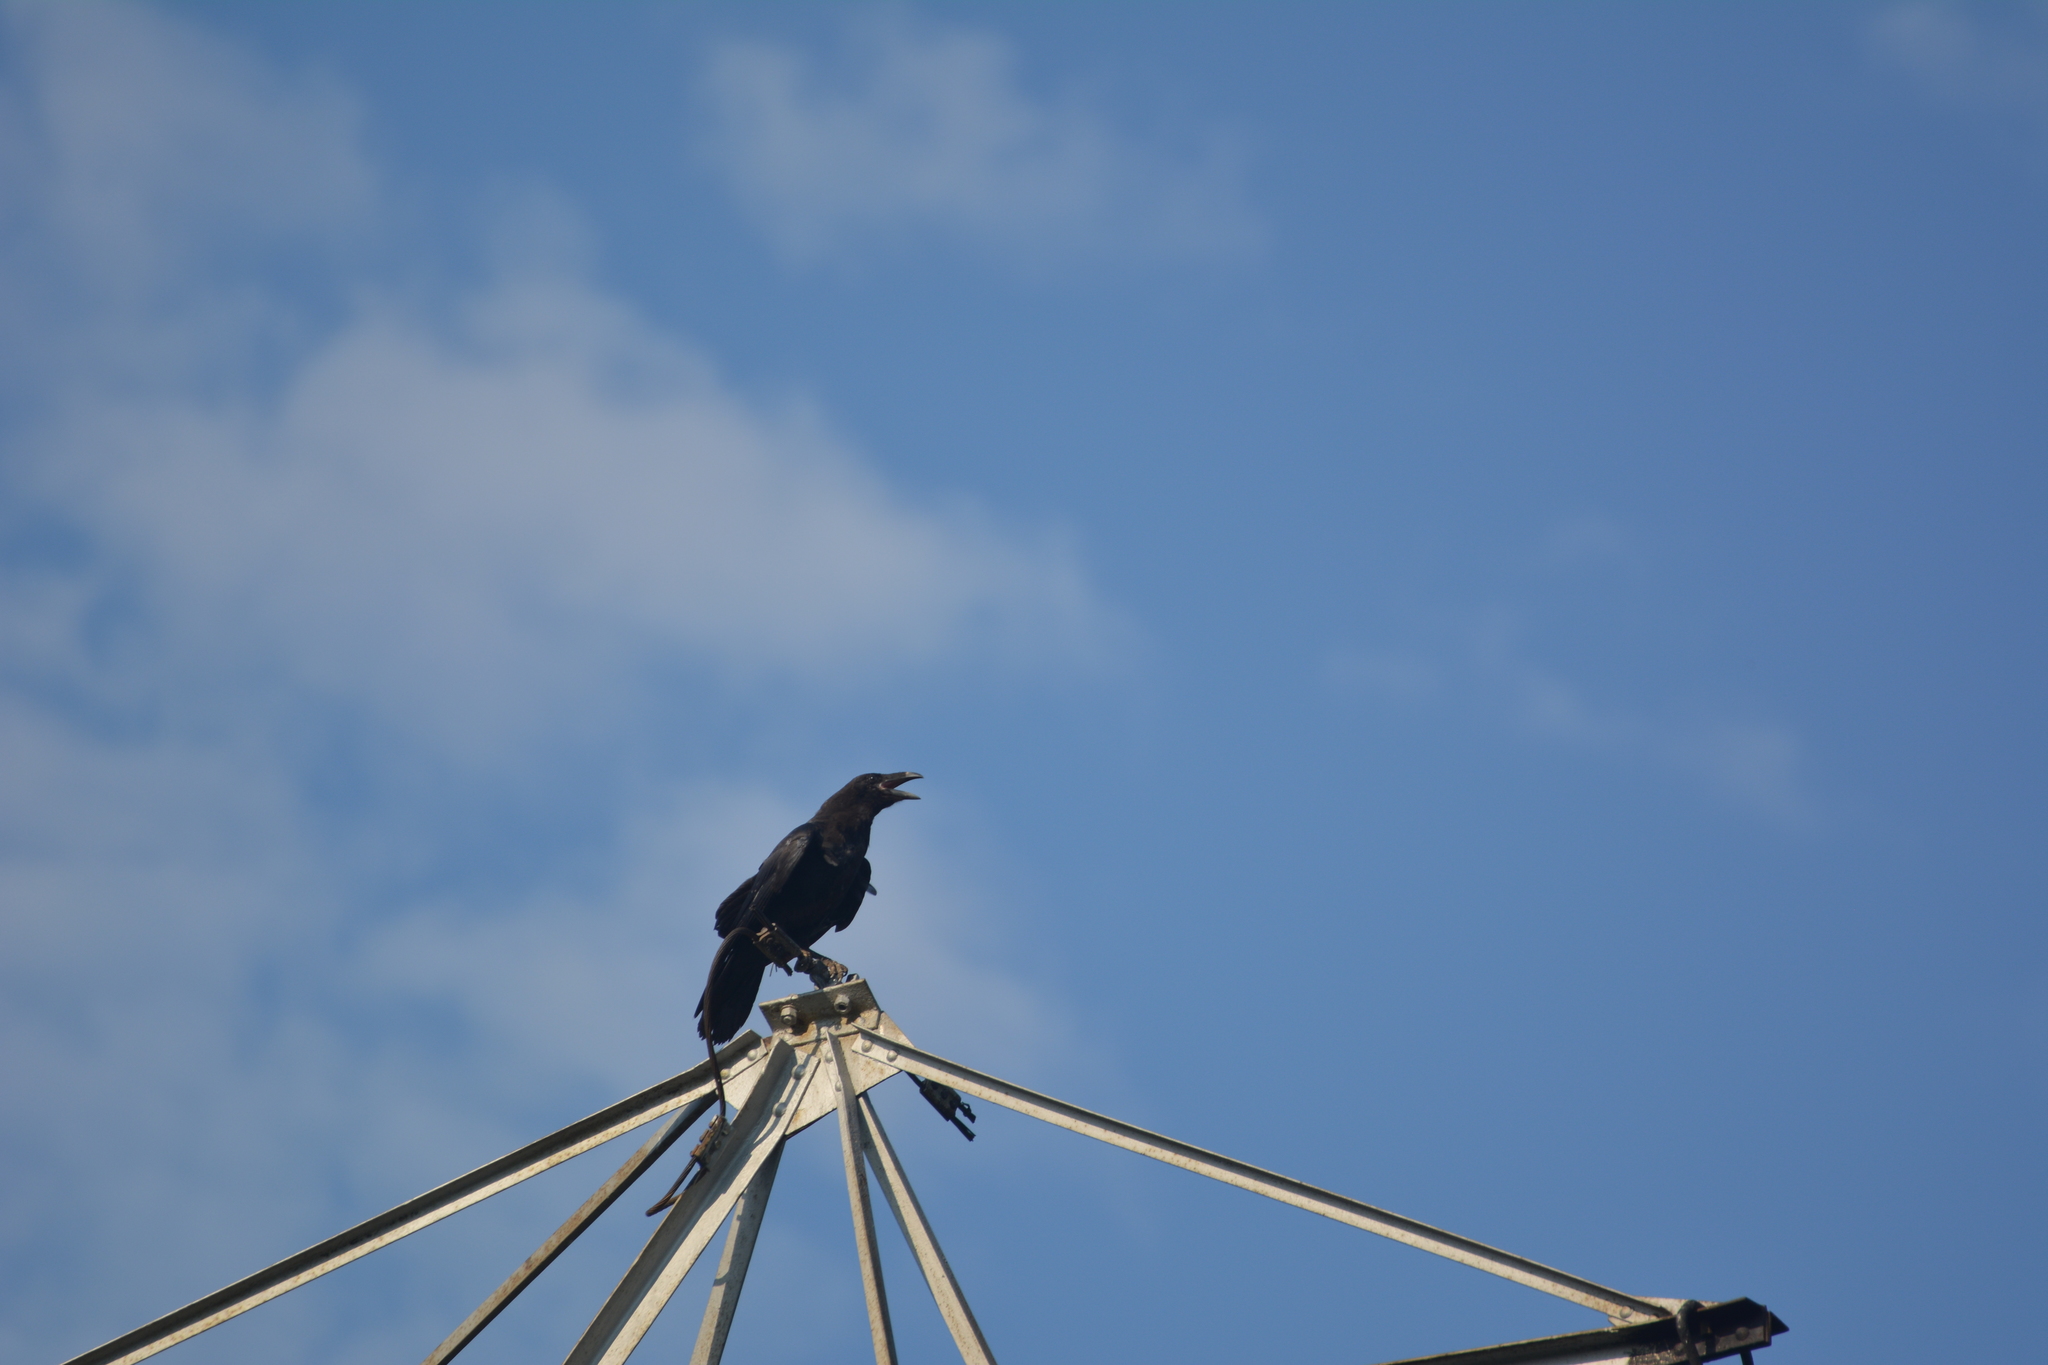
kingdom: Animalia
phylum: Chordata
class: Aves
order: Passeriformes
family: Corvidae
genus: Corvus
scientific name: Corvus corax
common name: Common raven
